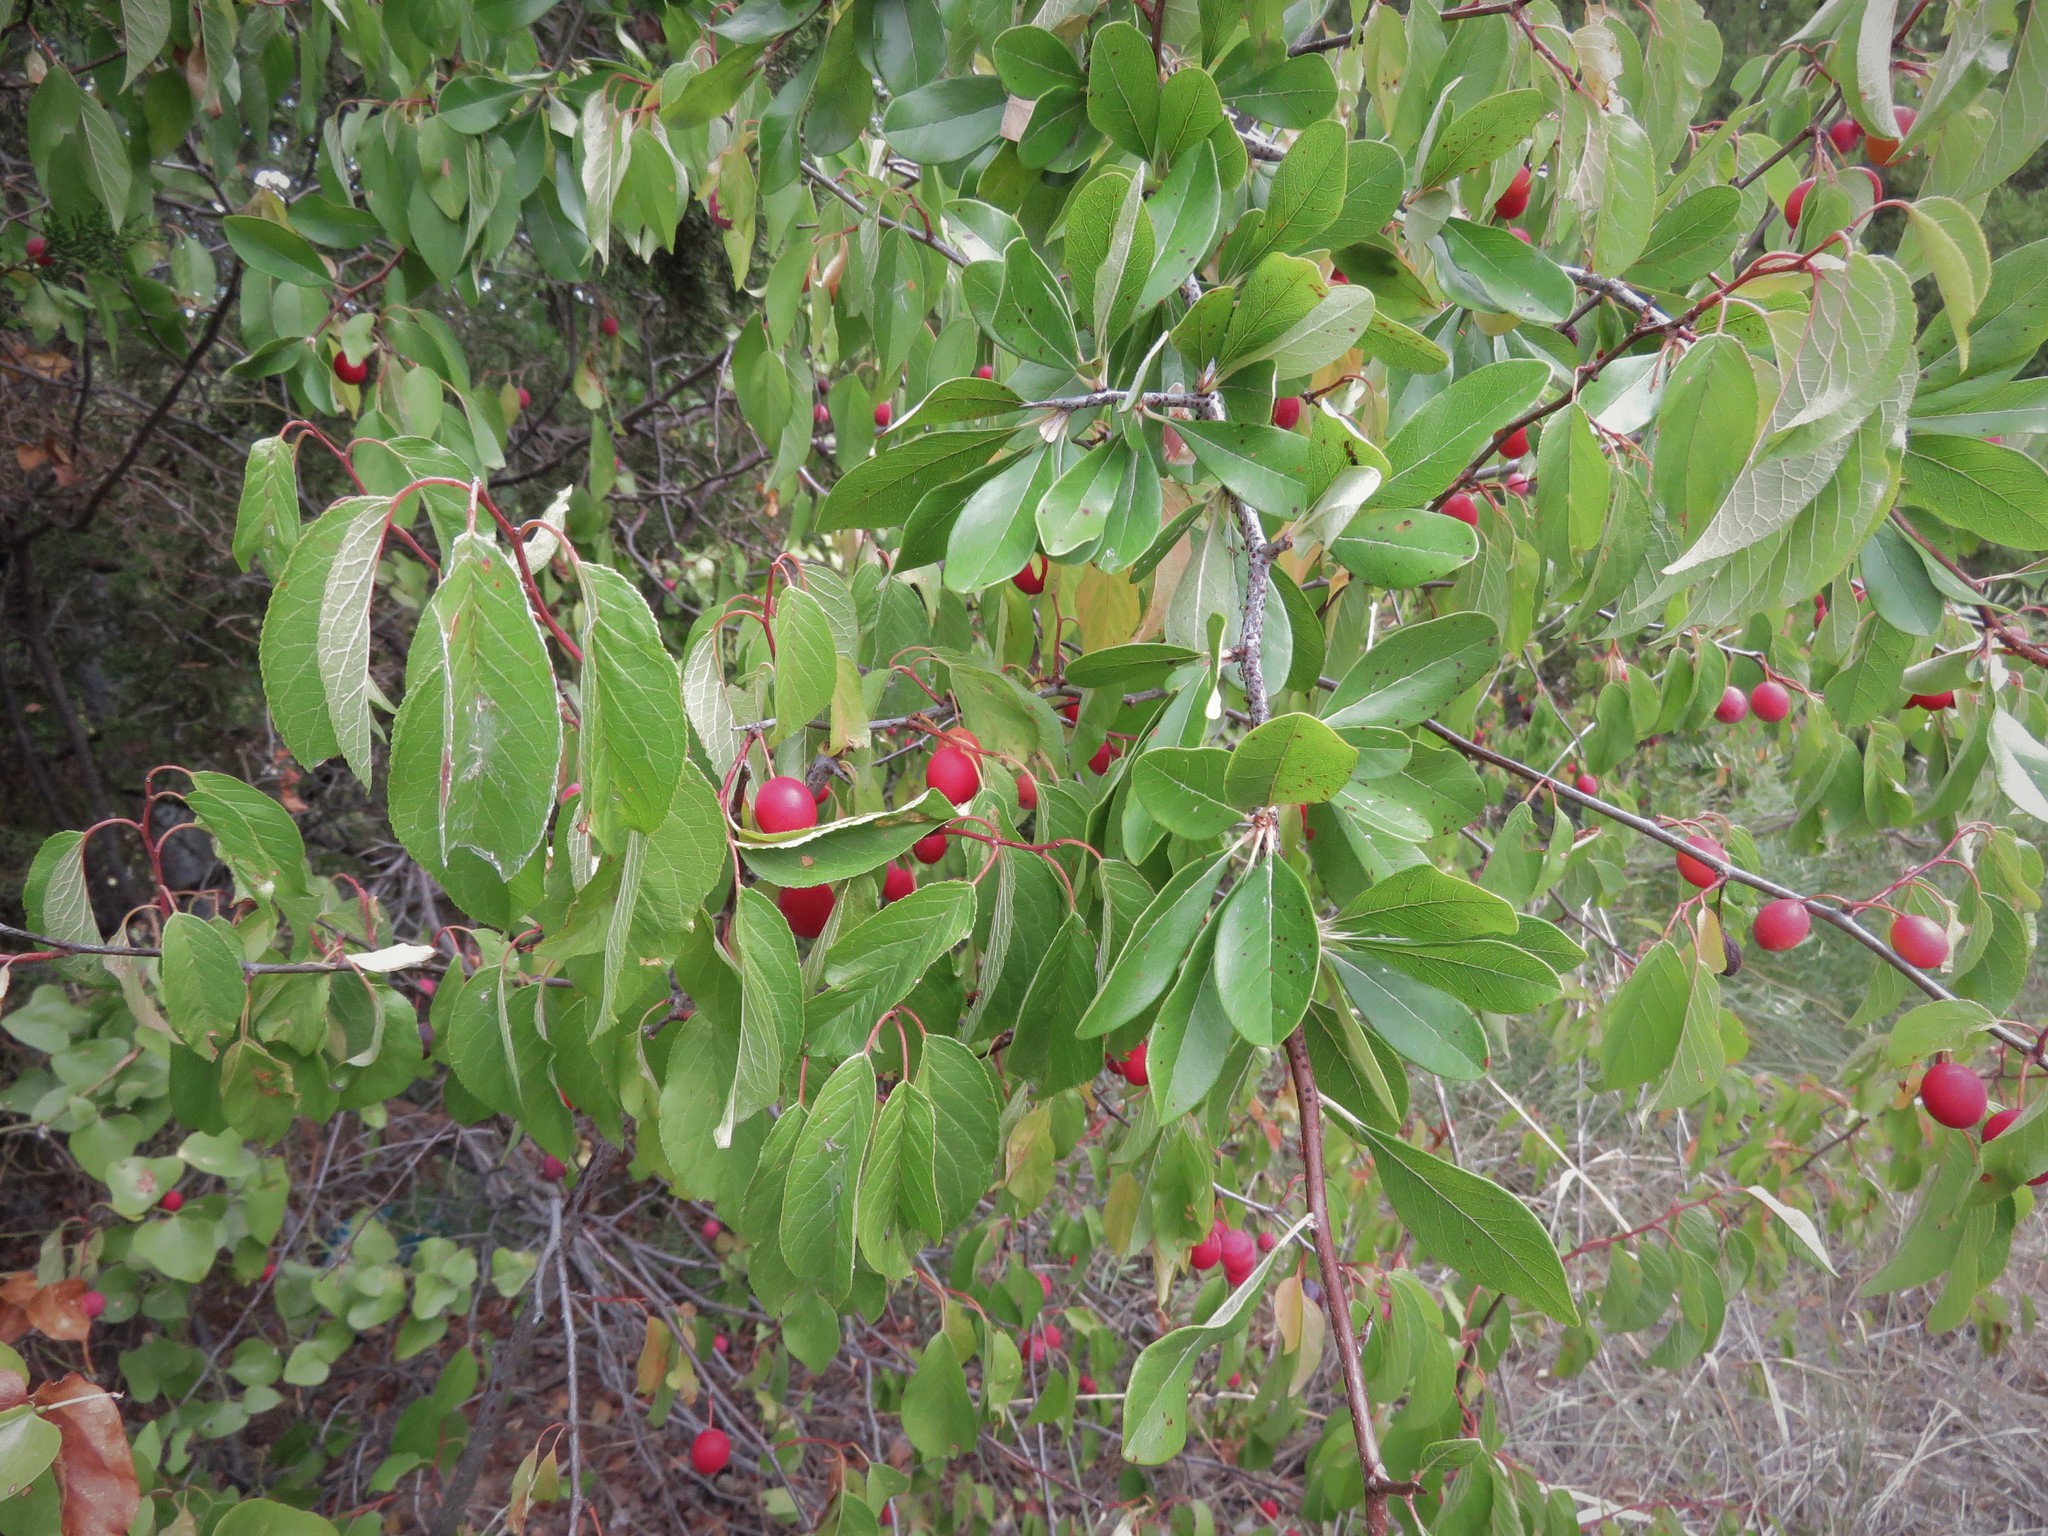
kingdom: Plantae
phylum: Tracheophyta
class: Magnoliopsida
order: Rosales
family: Rosaceae
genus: Prunus
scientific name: Prunus rivularis
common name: Creek plum
